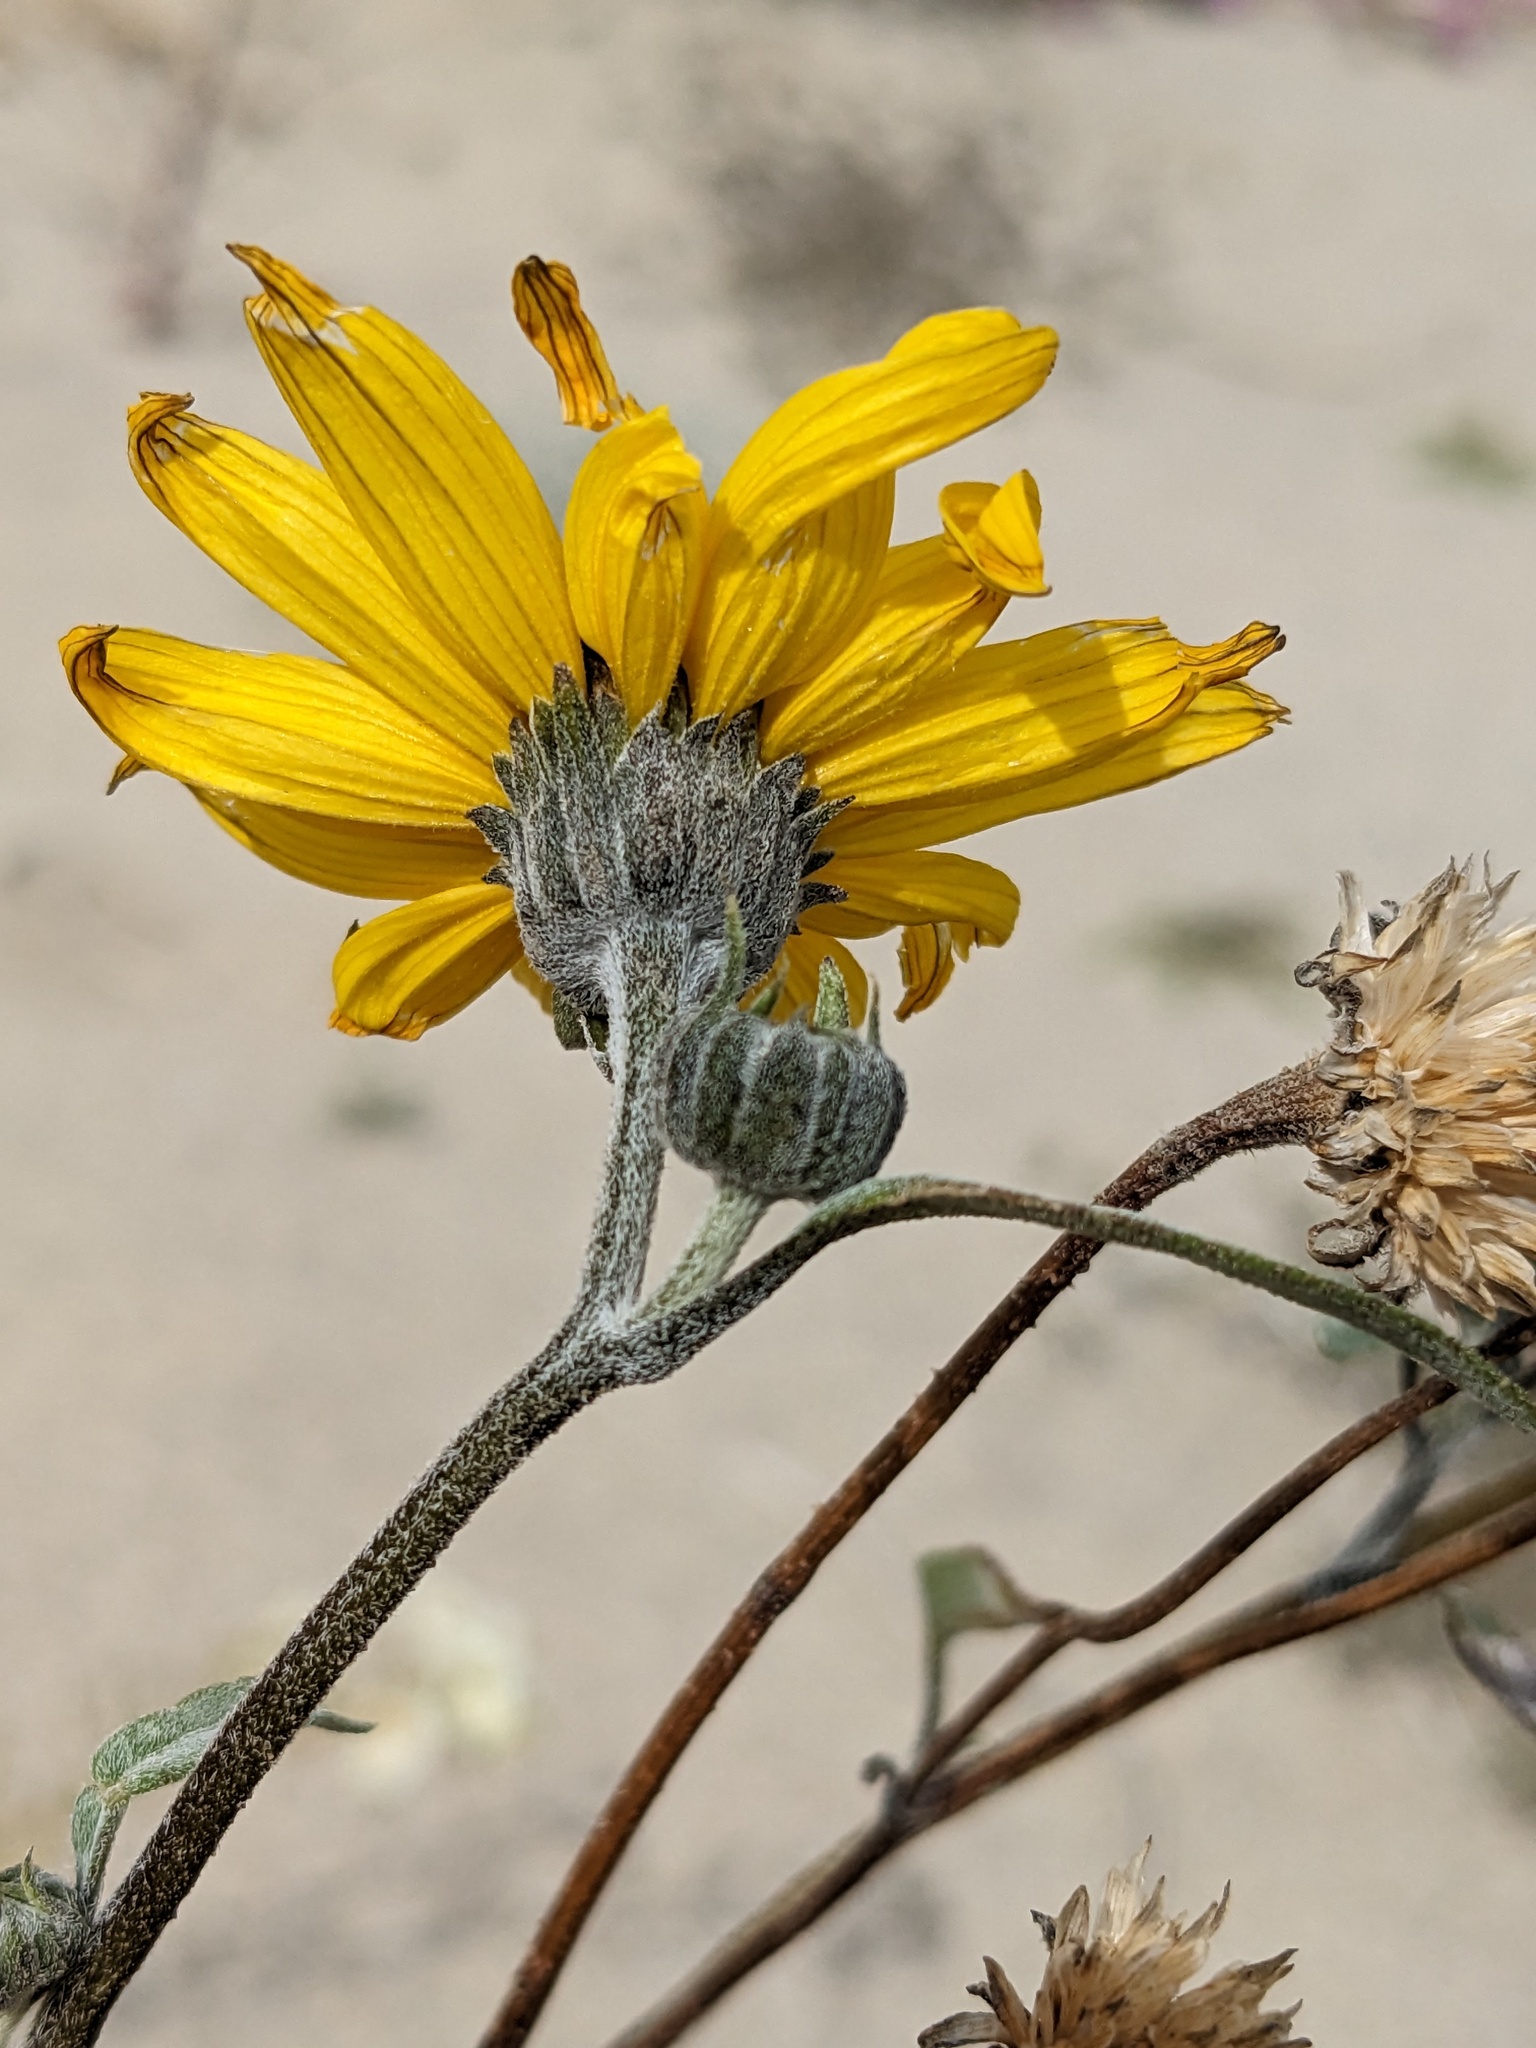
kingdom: Plantae
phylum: Tracheophyta
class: Magnoliopsida
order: Asterales
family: Asteraceae
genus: Helianthus
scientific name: Helianthus petiolaris
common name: Lesser sunflower
